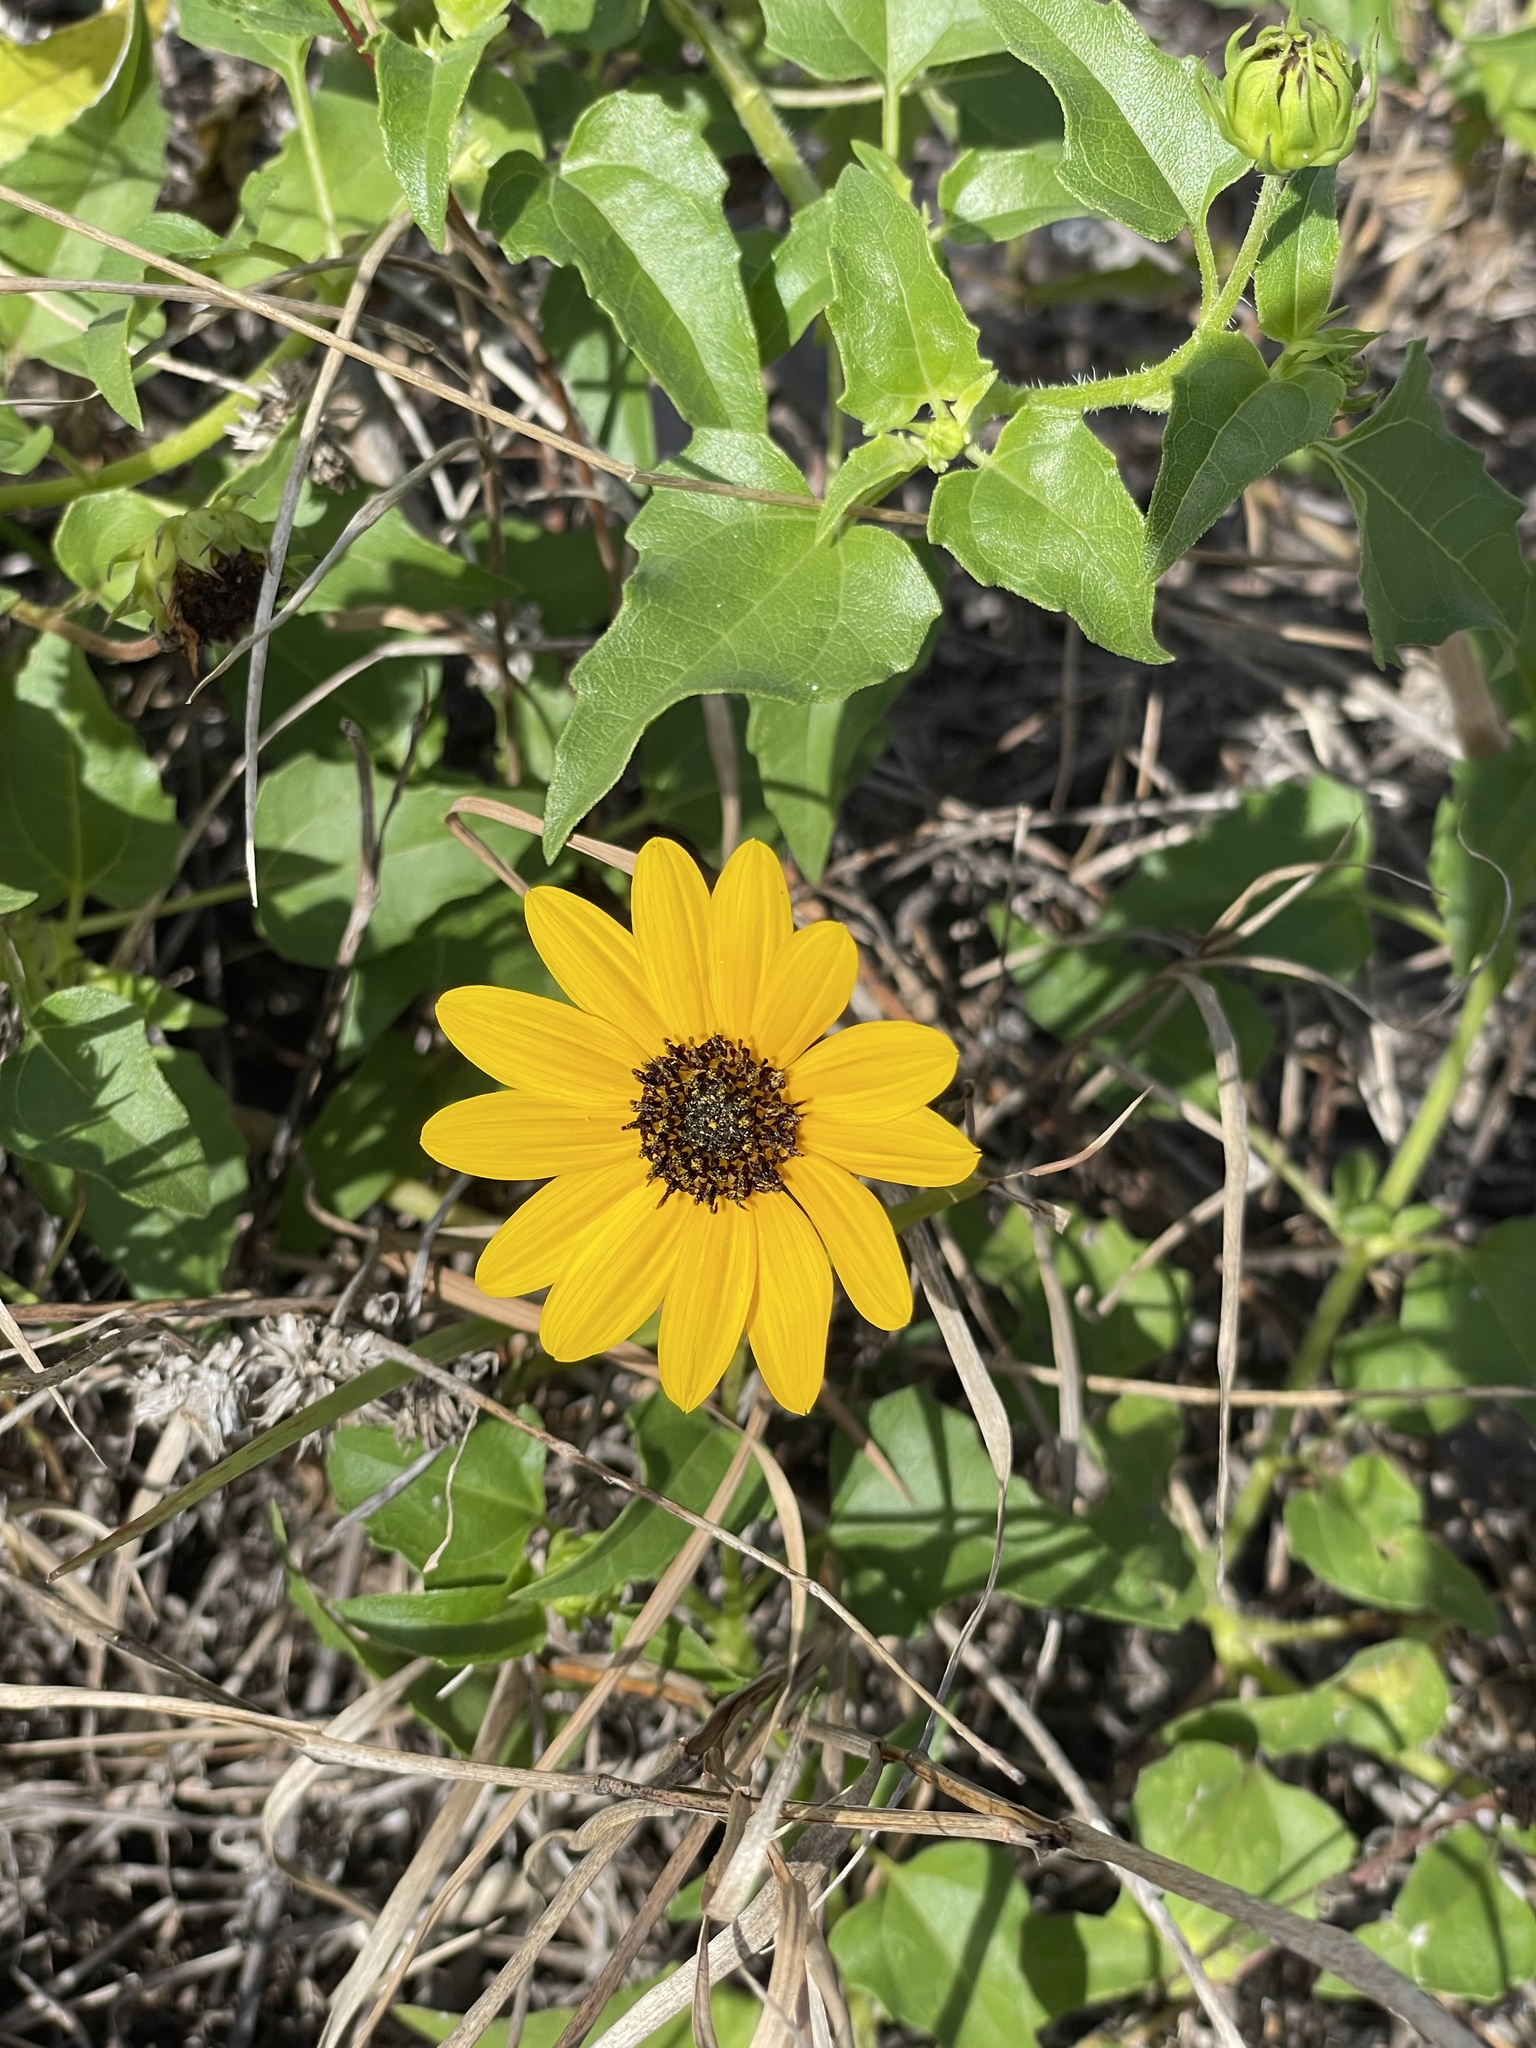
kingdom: Plantae
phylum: Tracheophyta
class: Magnoliopsida
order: Asterales
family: Asteraceae
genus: Helianthus
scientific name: Helianthus debilis
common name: Weak sunflower
